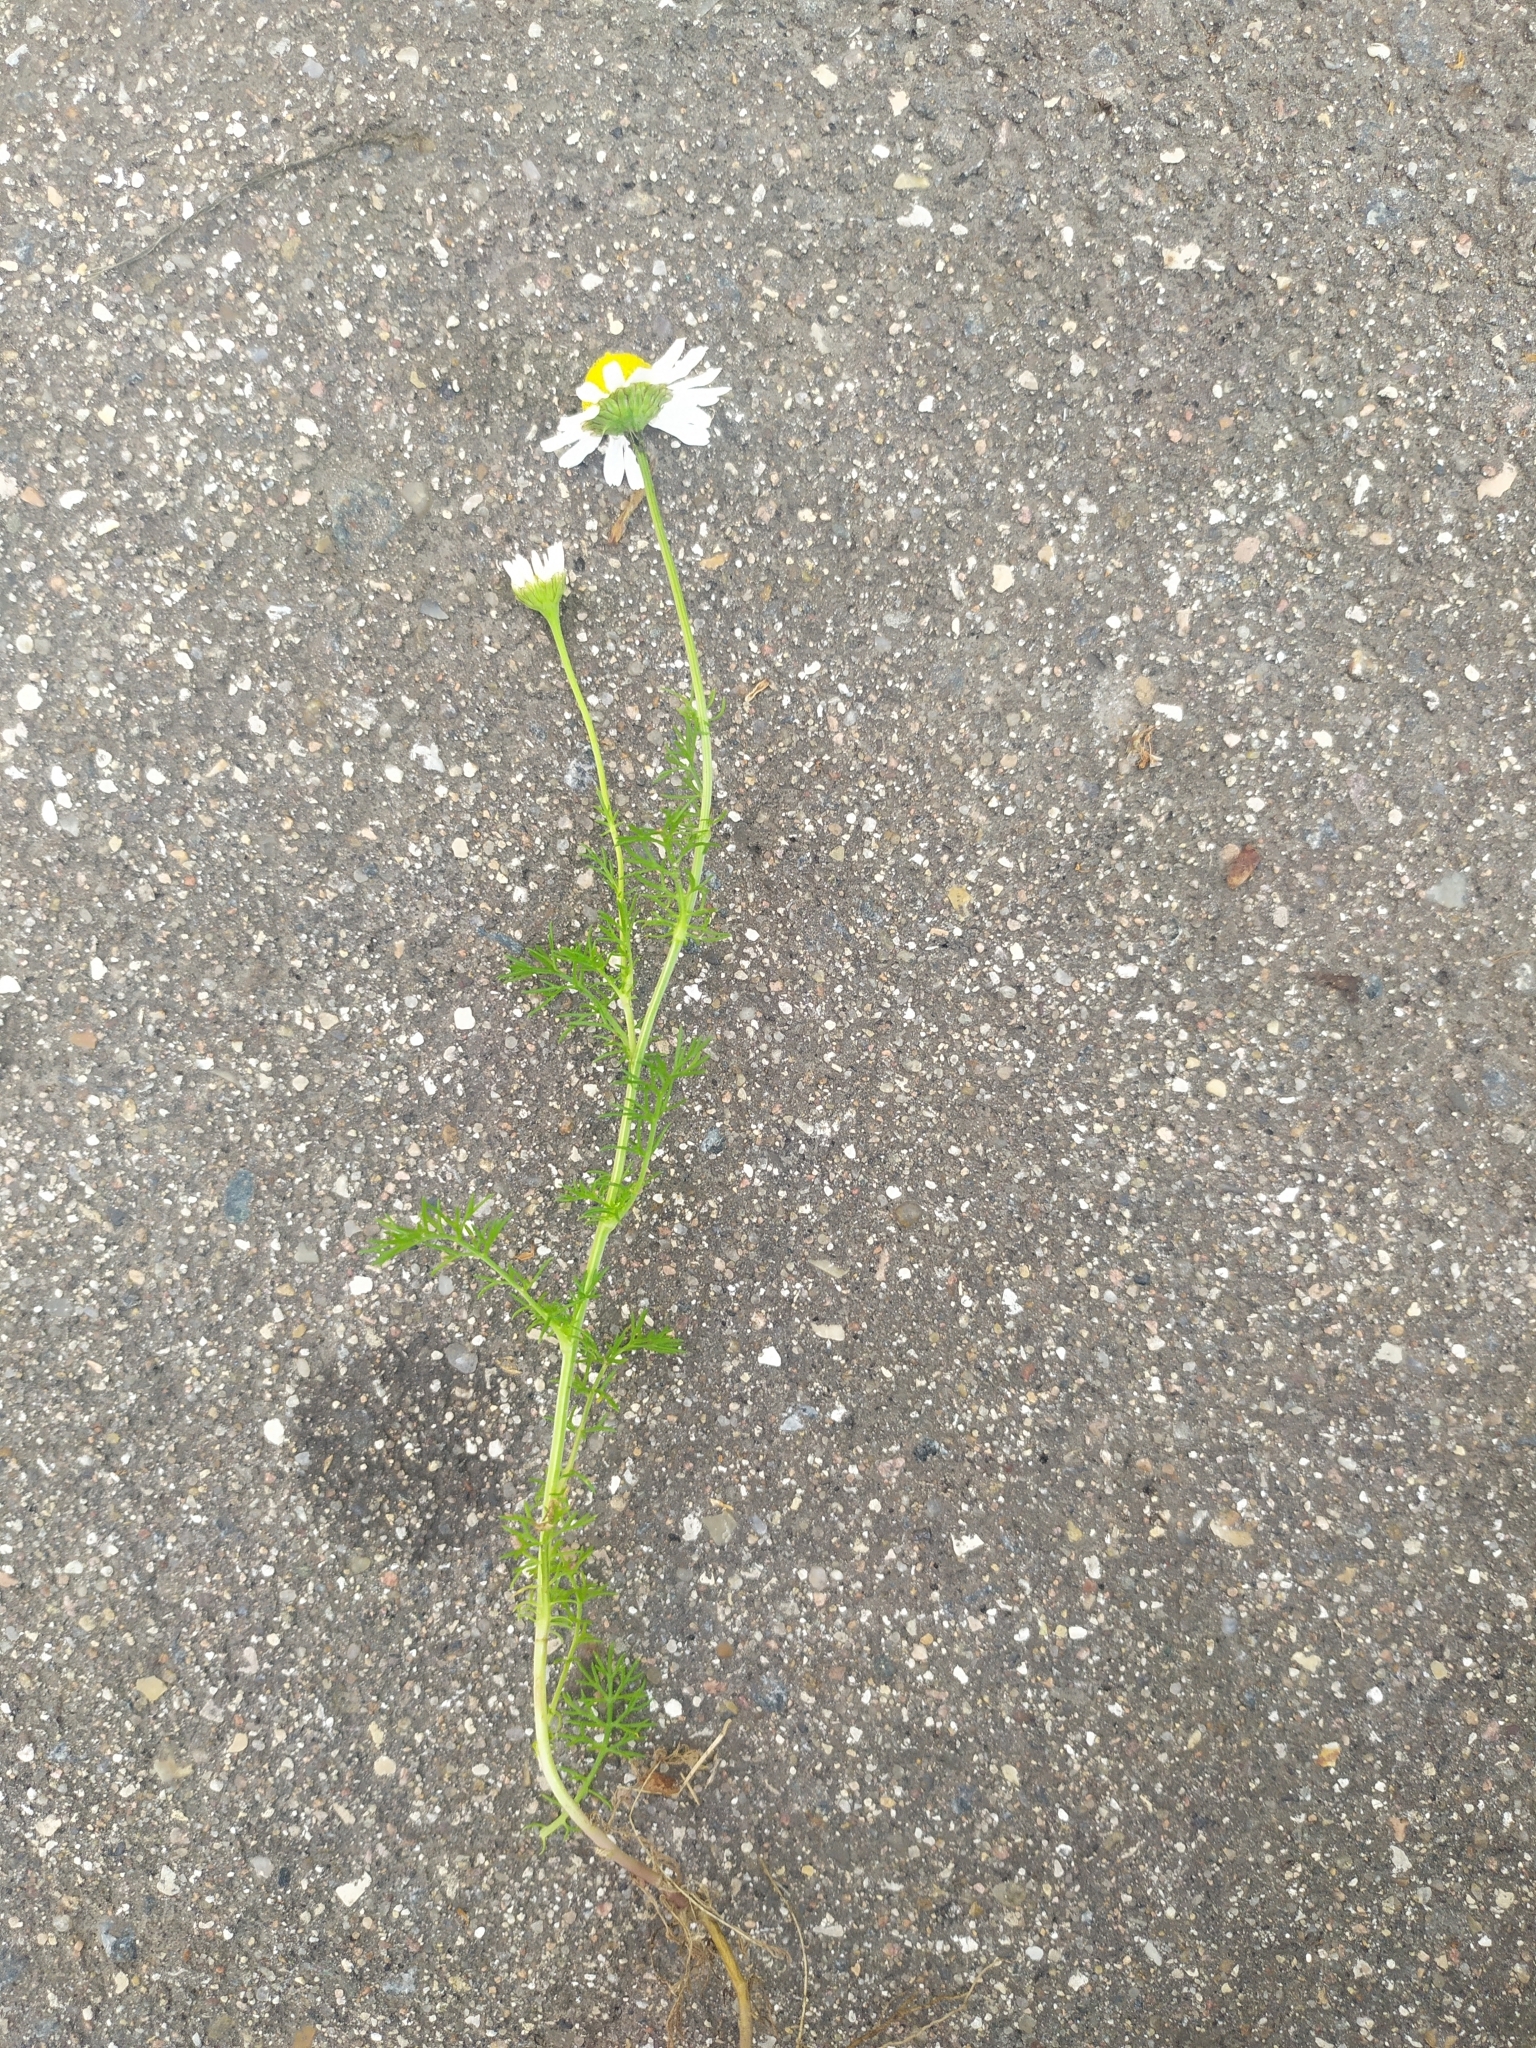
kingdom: Plantae
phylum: Tracheophyta
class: Magnoliopsida
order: Asterales
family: Asteraceae
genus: Tripleurospermum
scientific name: Tripleurospermum inodorum
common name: Scentless mayweed
